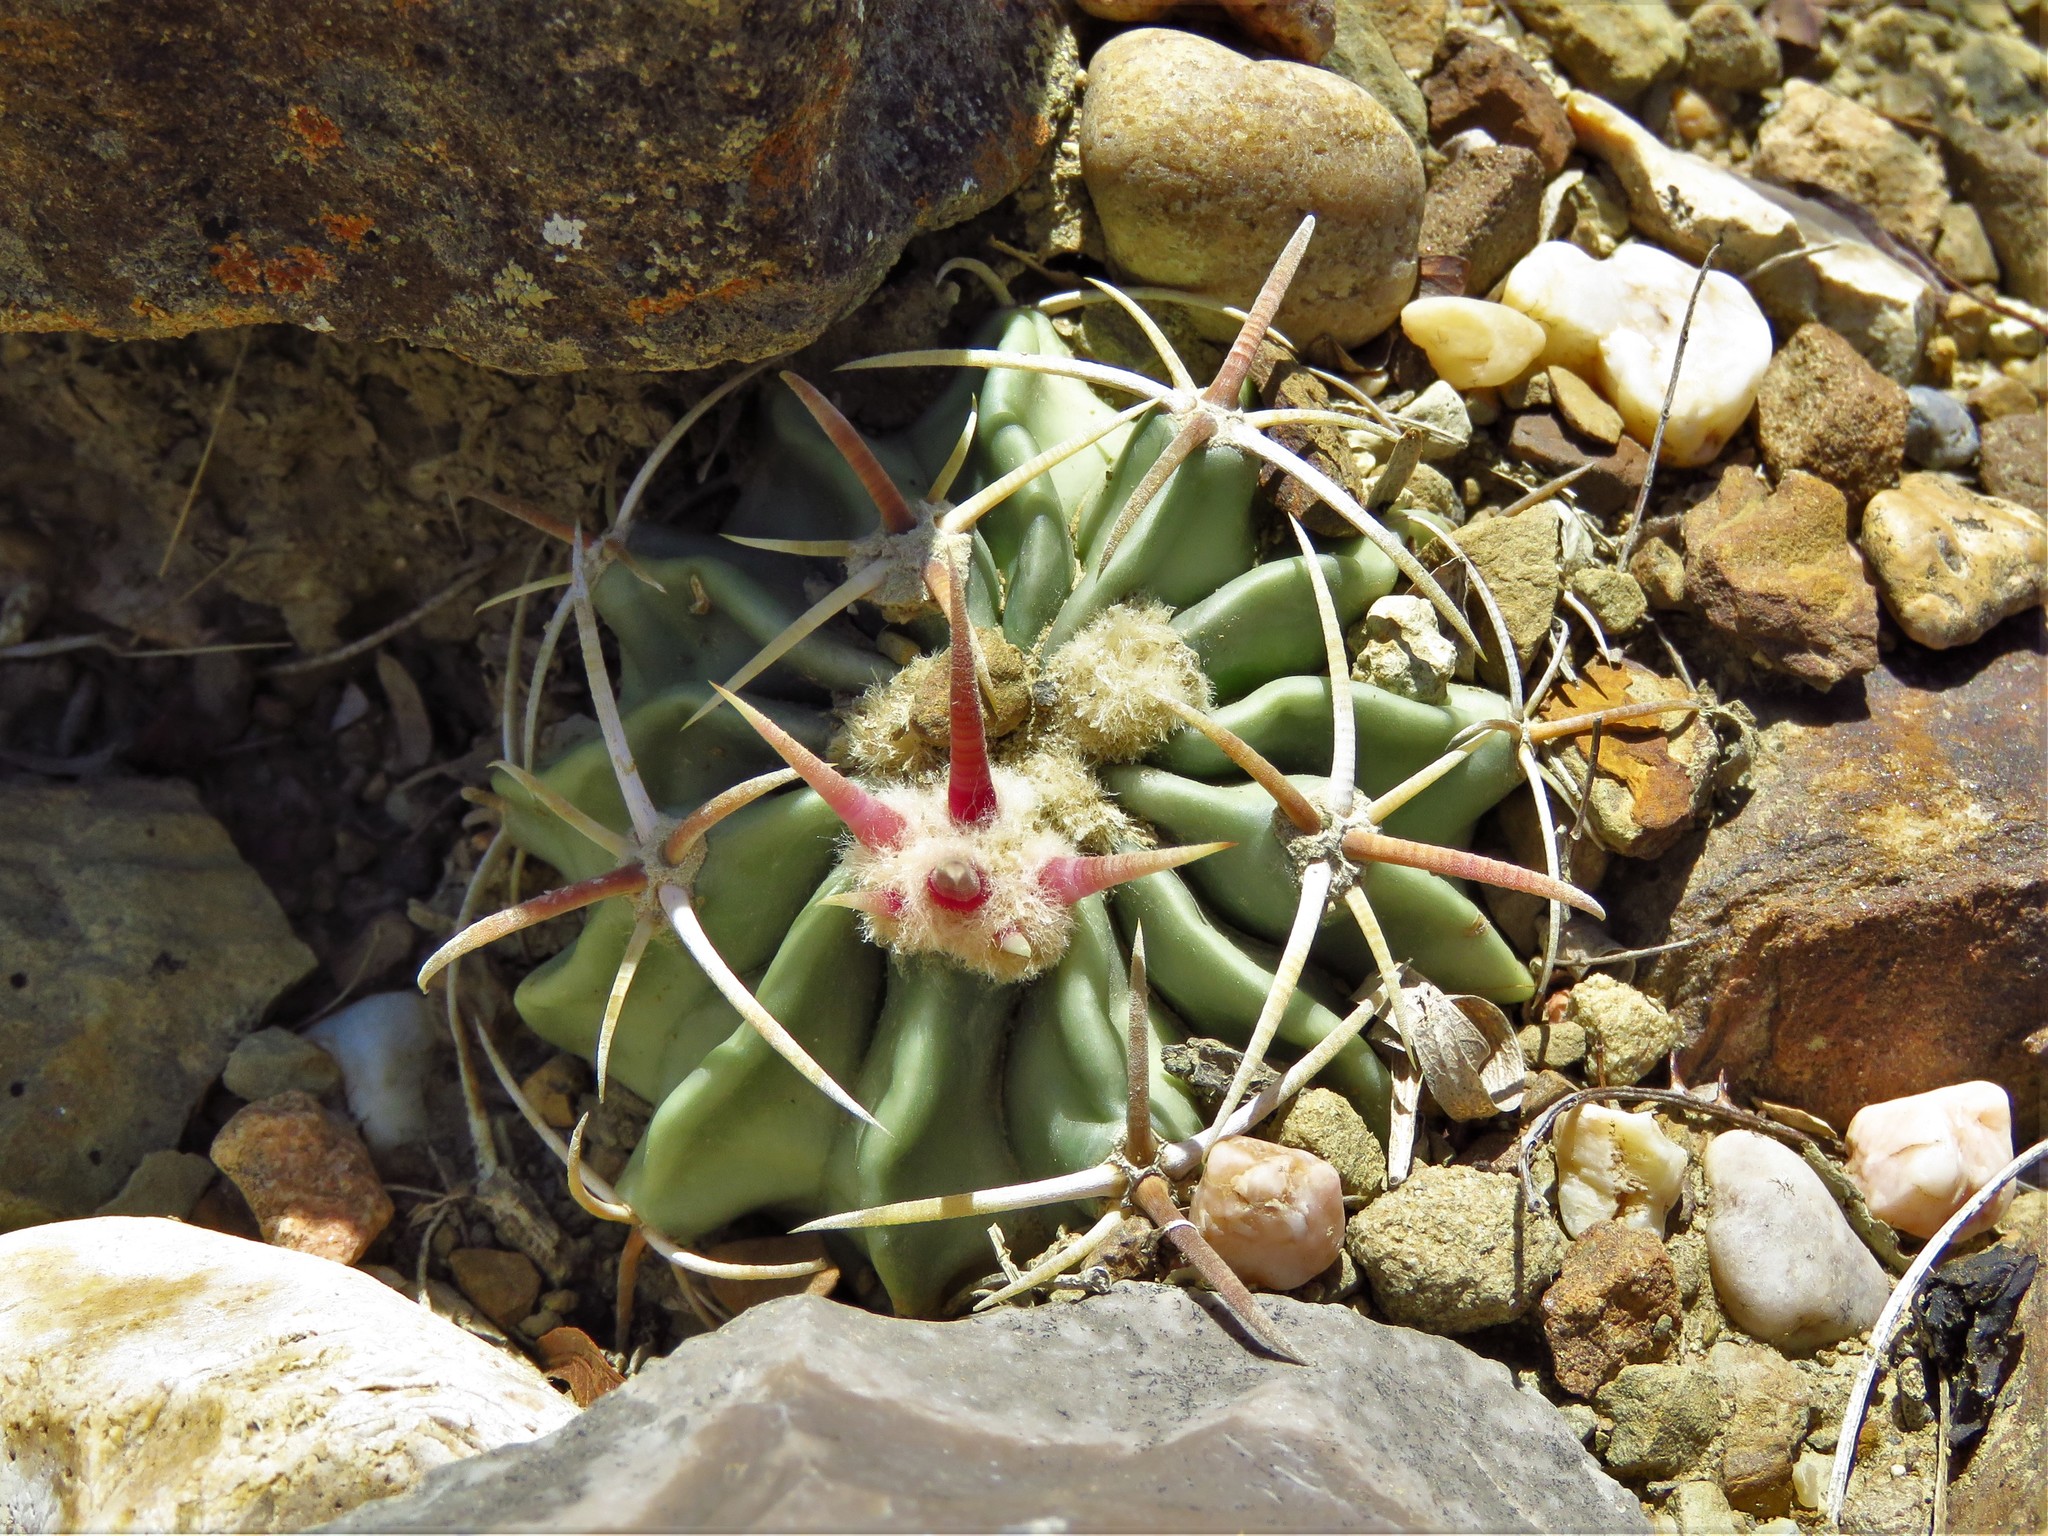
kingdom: Plantae
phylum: Tracheophyta
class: Magnoliopsida
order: Caryophyllales
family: Cactaceae
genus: Echinocactus
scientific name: Echinocactus texensis
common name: Devil's pincushion
